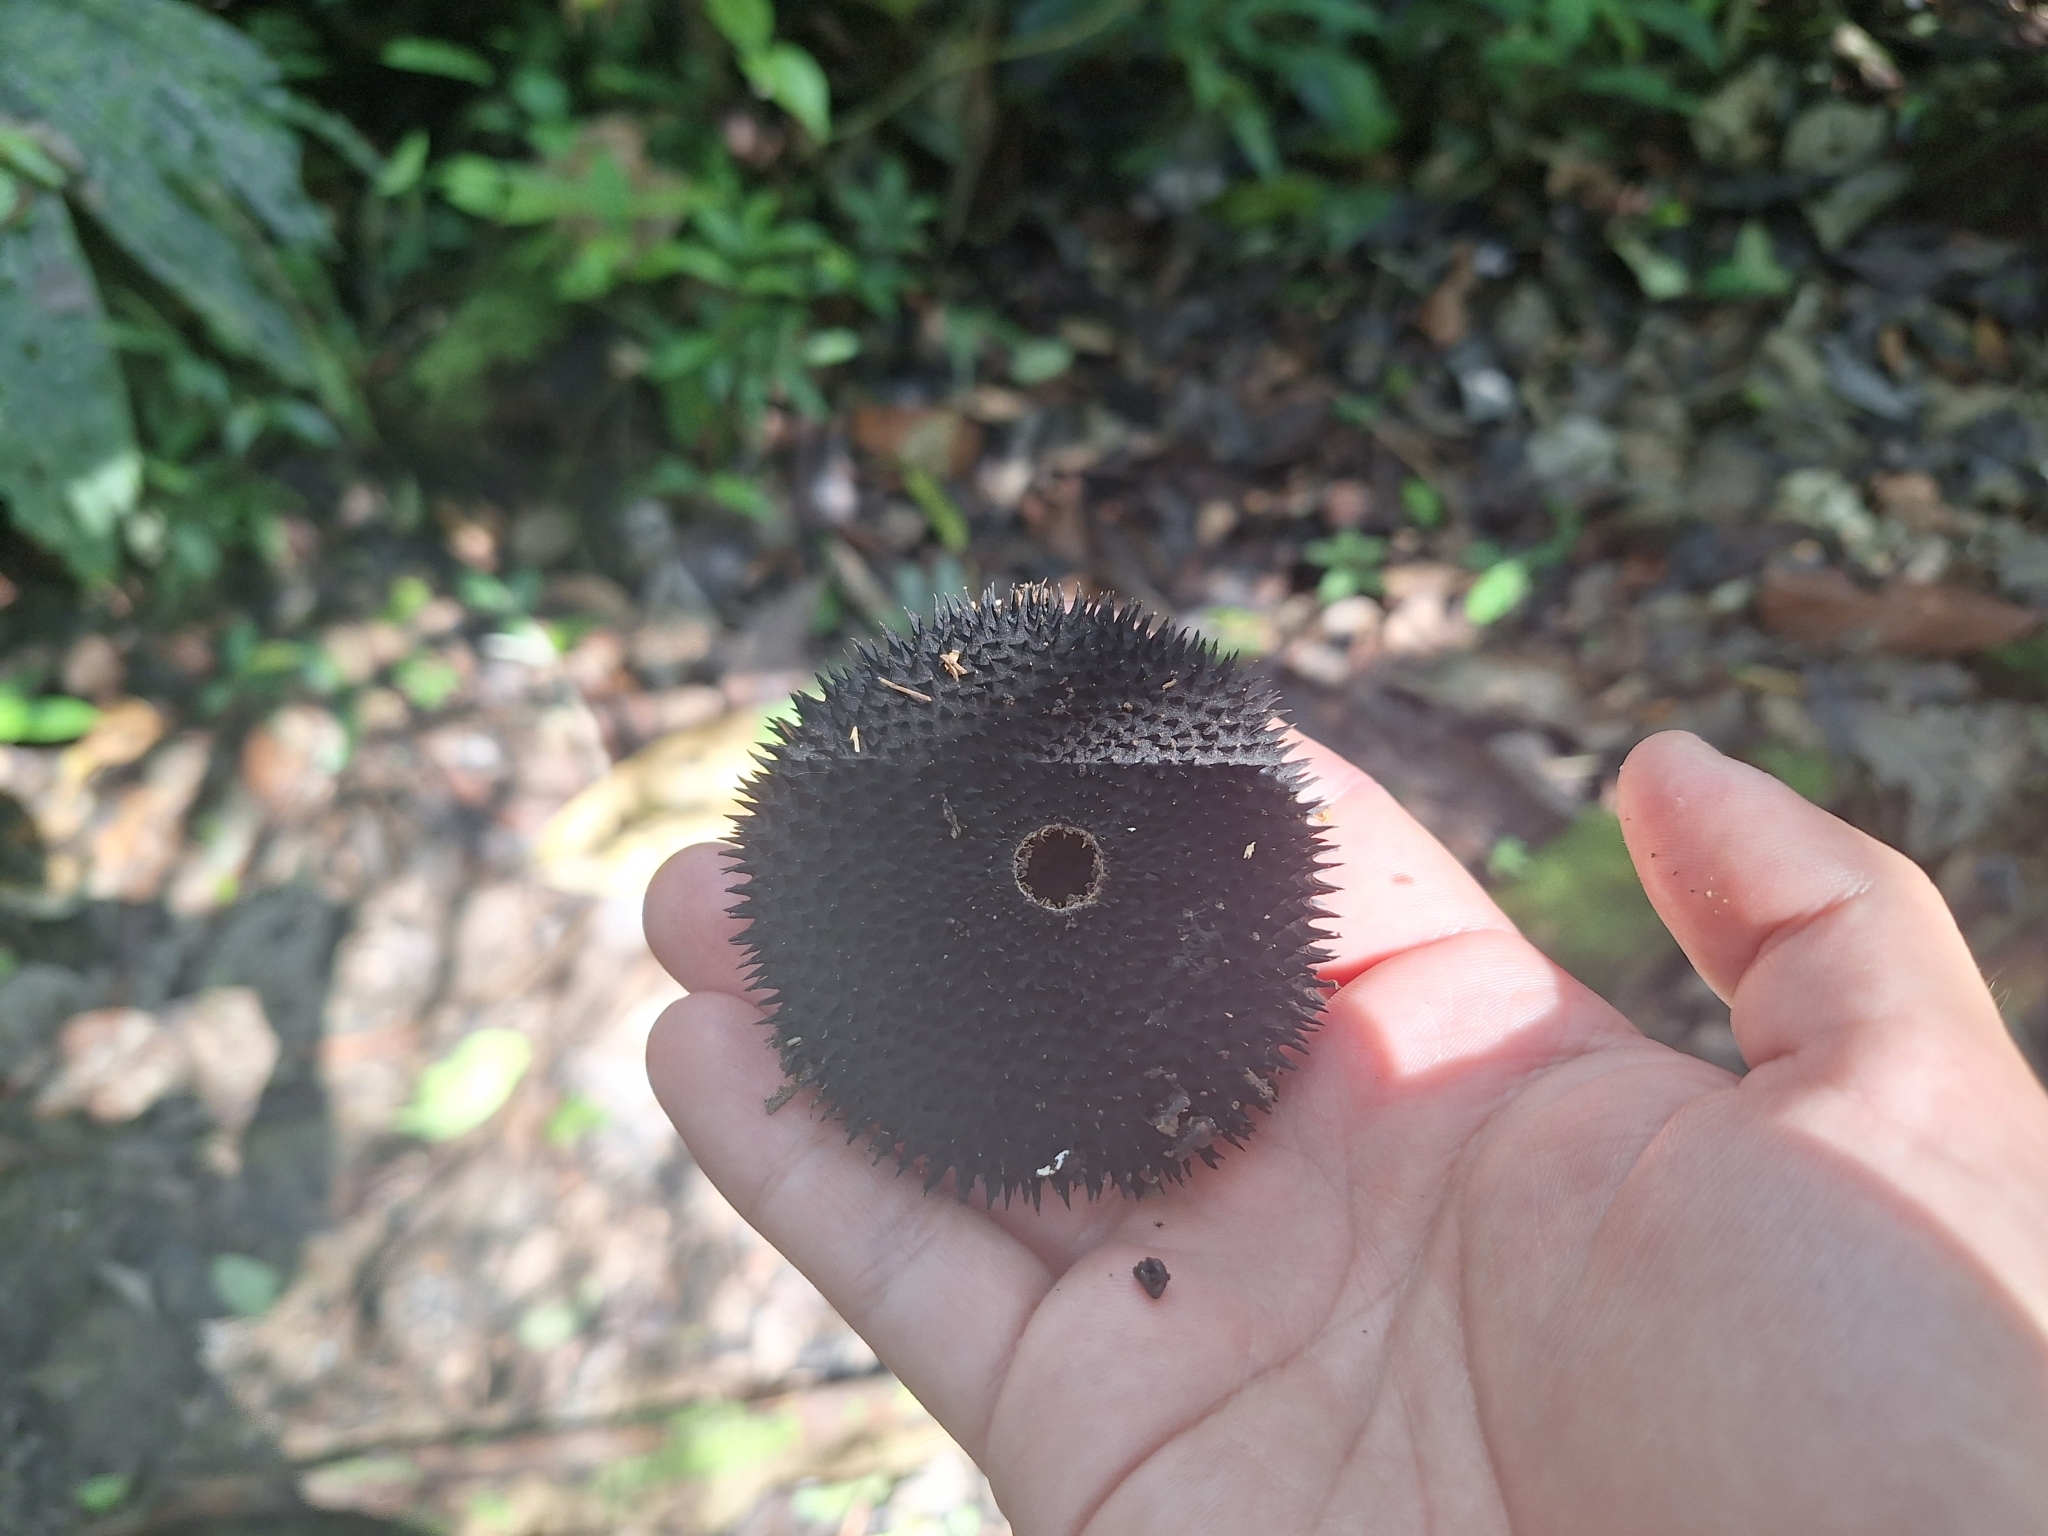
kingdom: Plantae
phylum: Tracheophyta
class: Magnoliopsida
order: Malvales
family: Malvaceae
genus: Apeiba
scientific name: Apeiba membranacea
